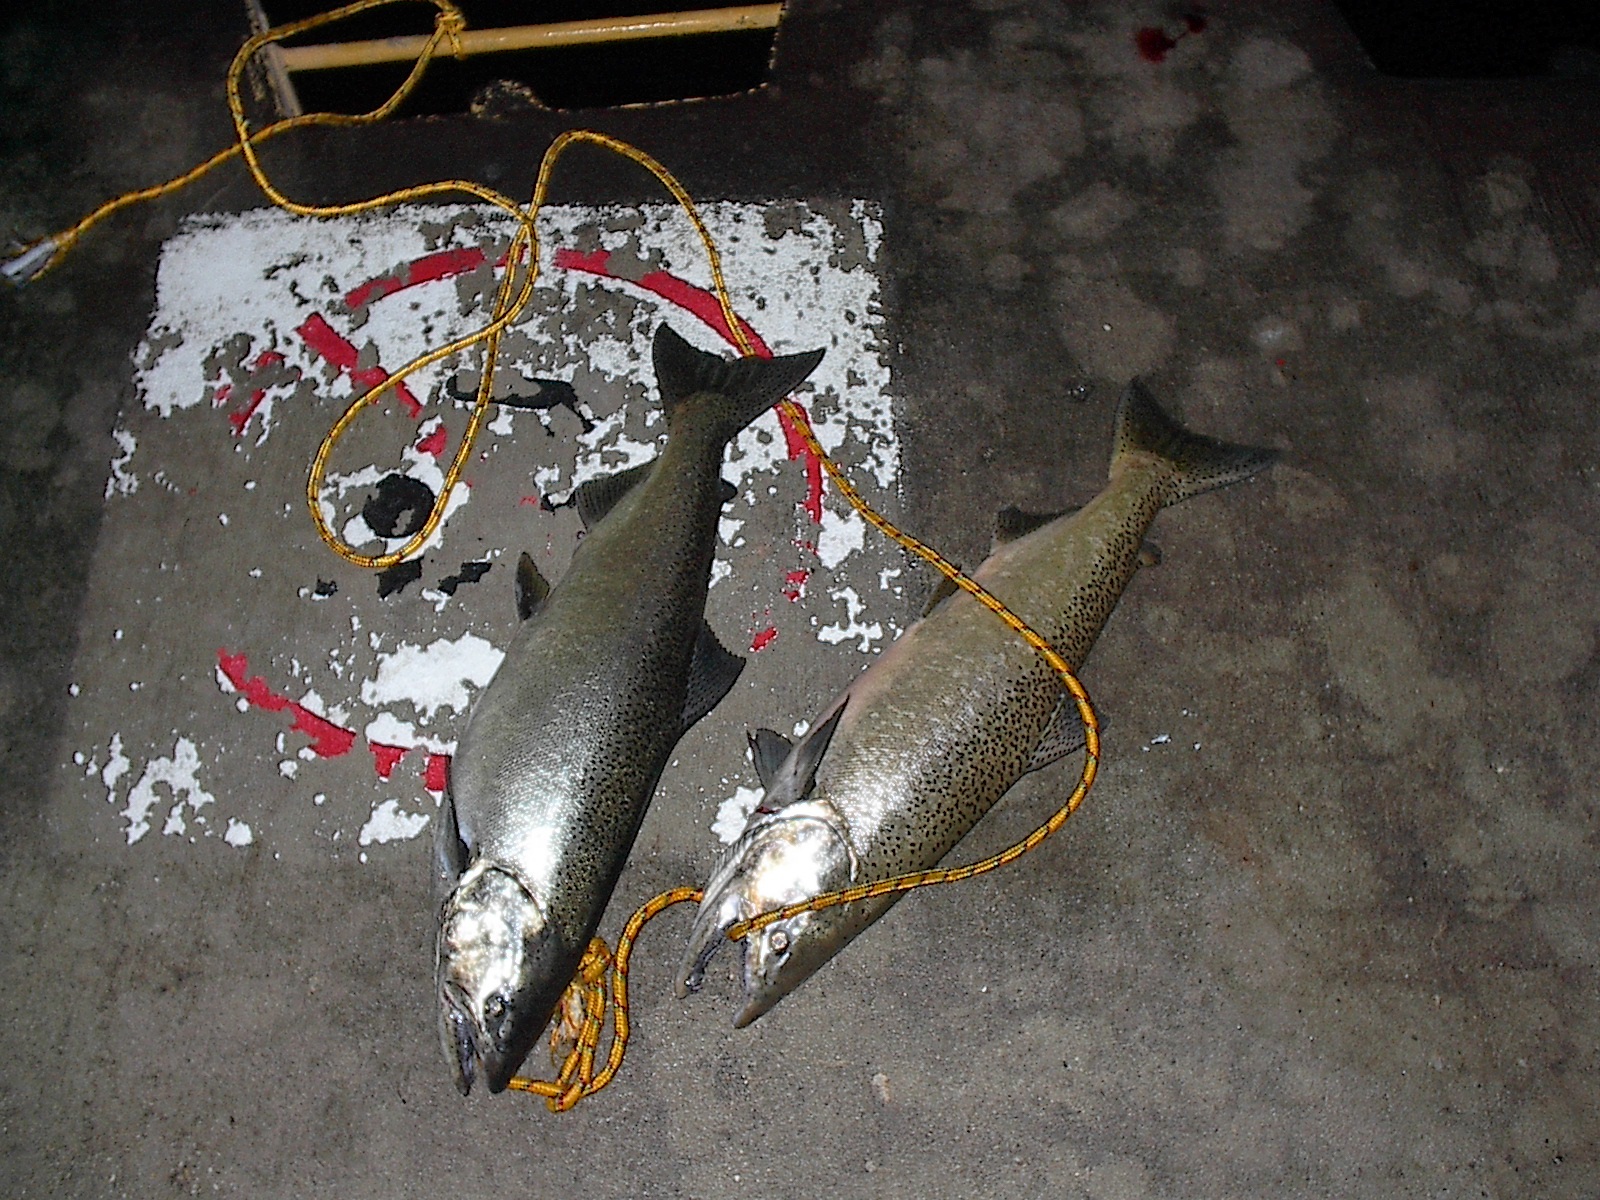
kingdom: Animalia
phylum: Chordata
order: Salmoniformes
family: Salmonidae
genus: Oncorhynchus
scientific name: Oncorhynchus tshawytscha
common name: Chinook salmon
